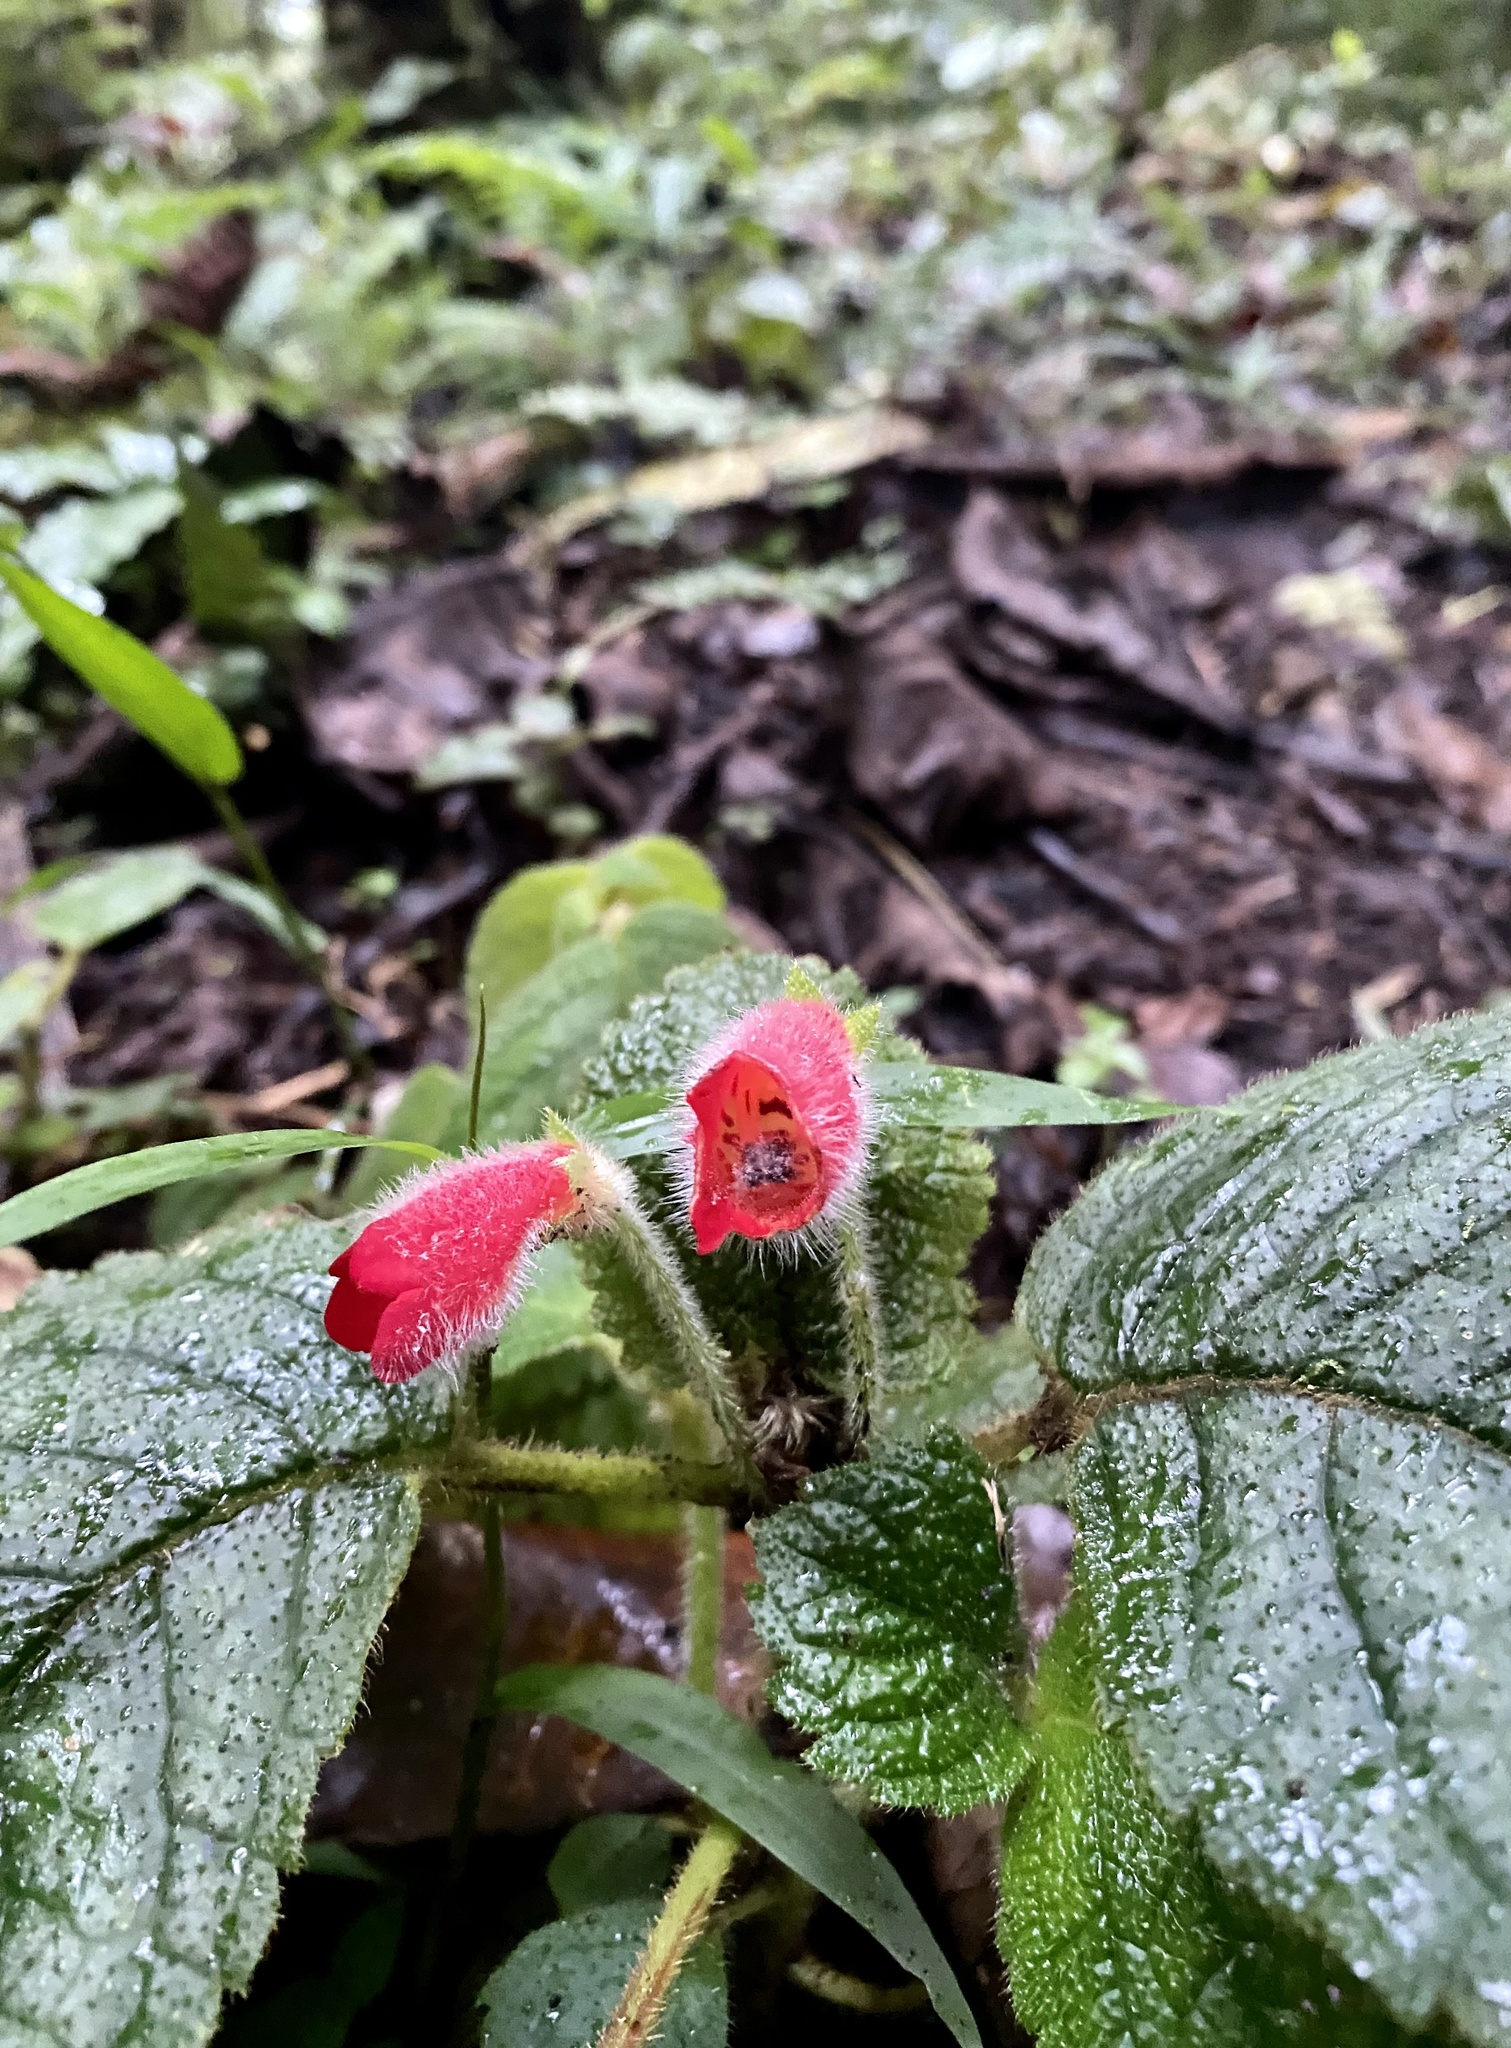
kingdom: Plantae
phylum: Tracheophyta
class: Magnoliopsida
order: Lamiales
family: Gesneriaceae
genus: Kohleria
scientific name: Kohleria villosa
